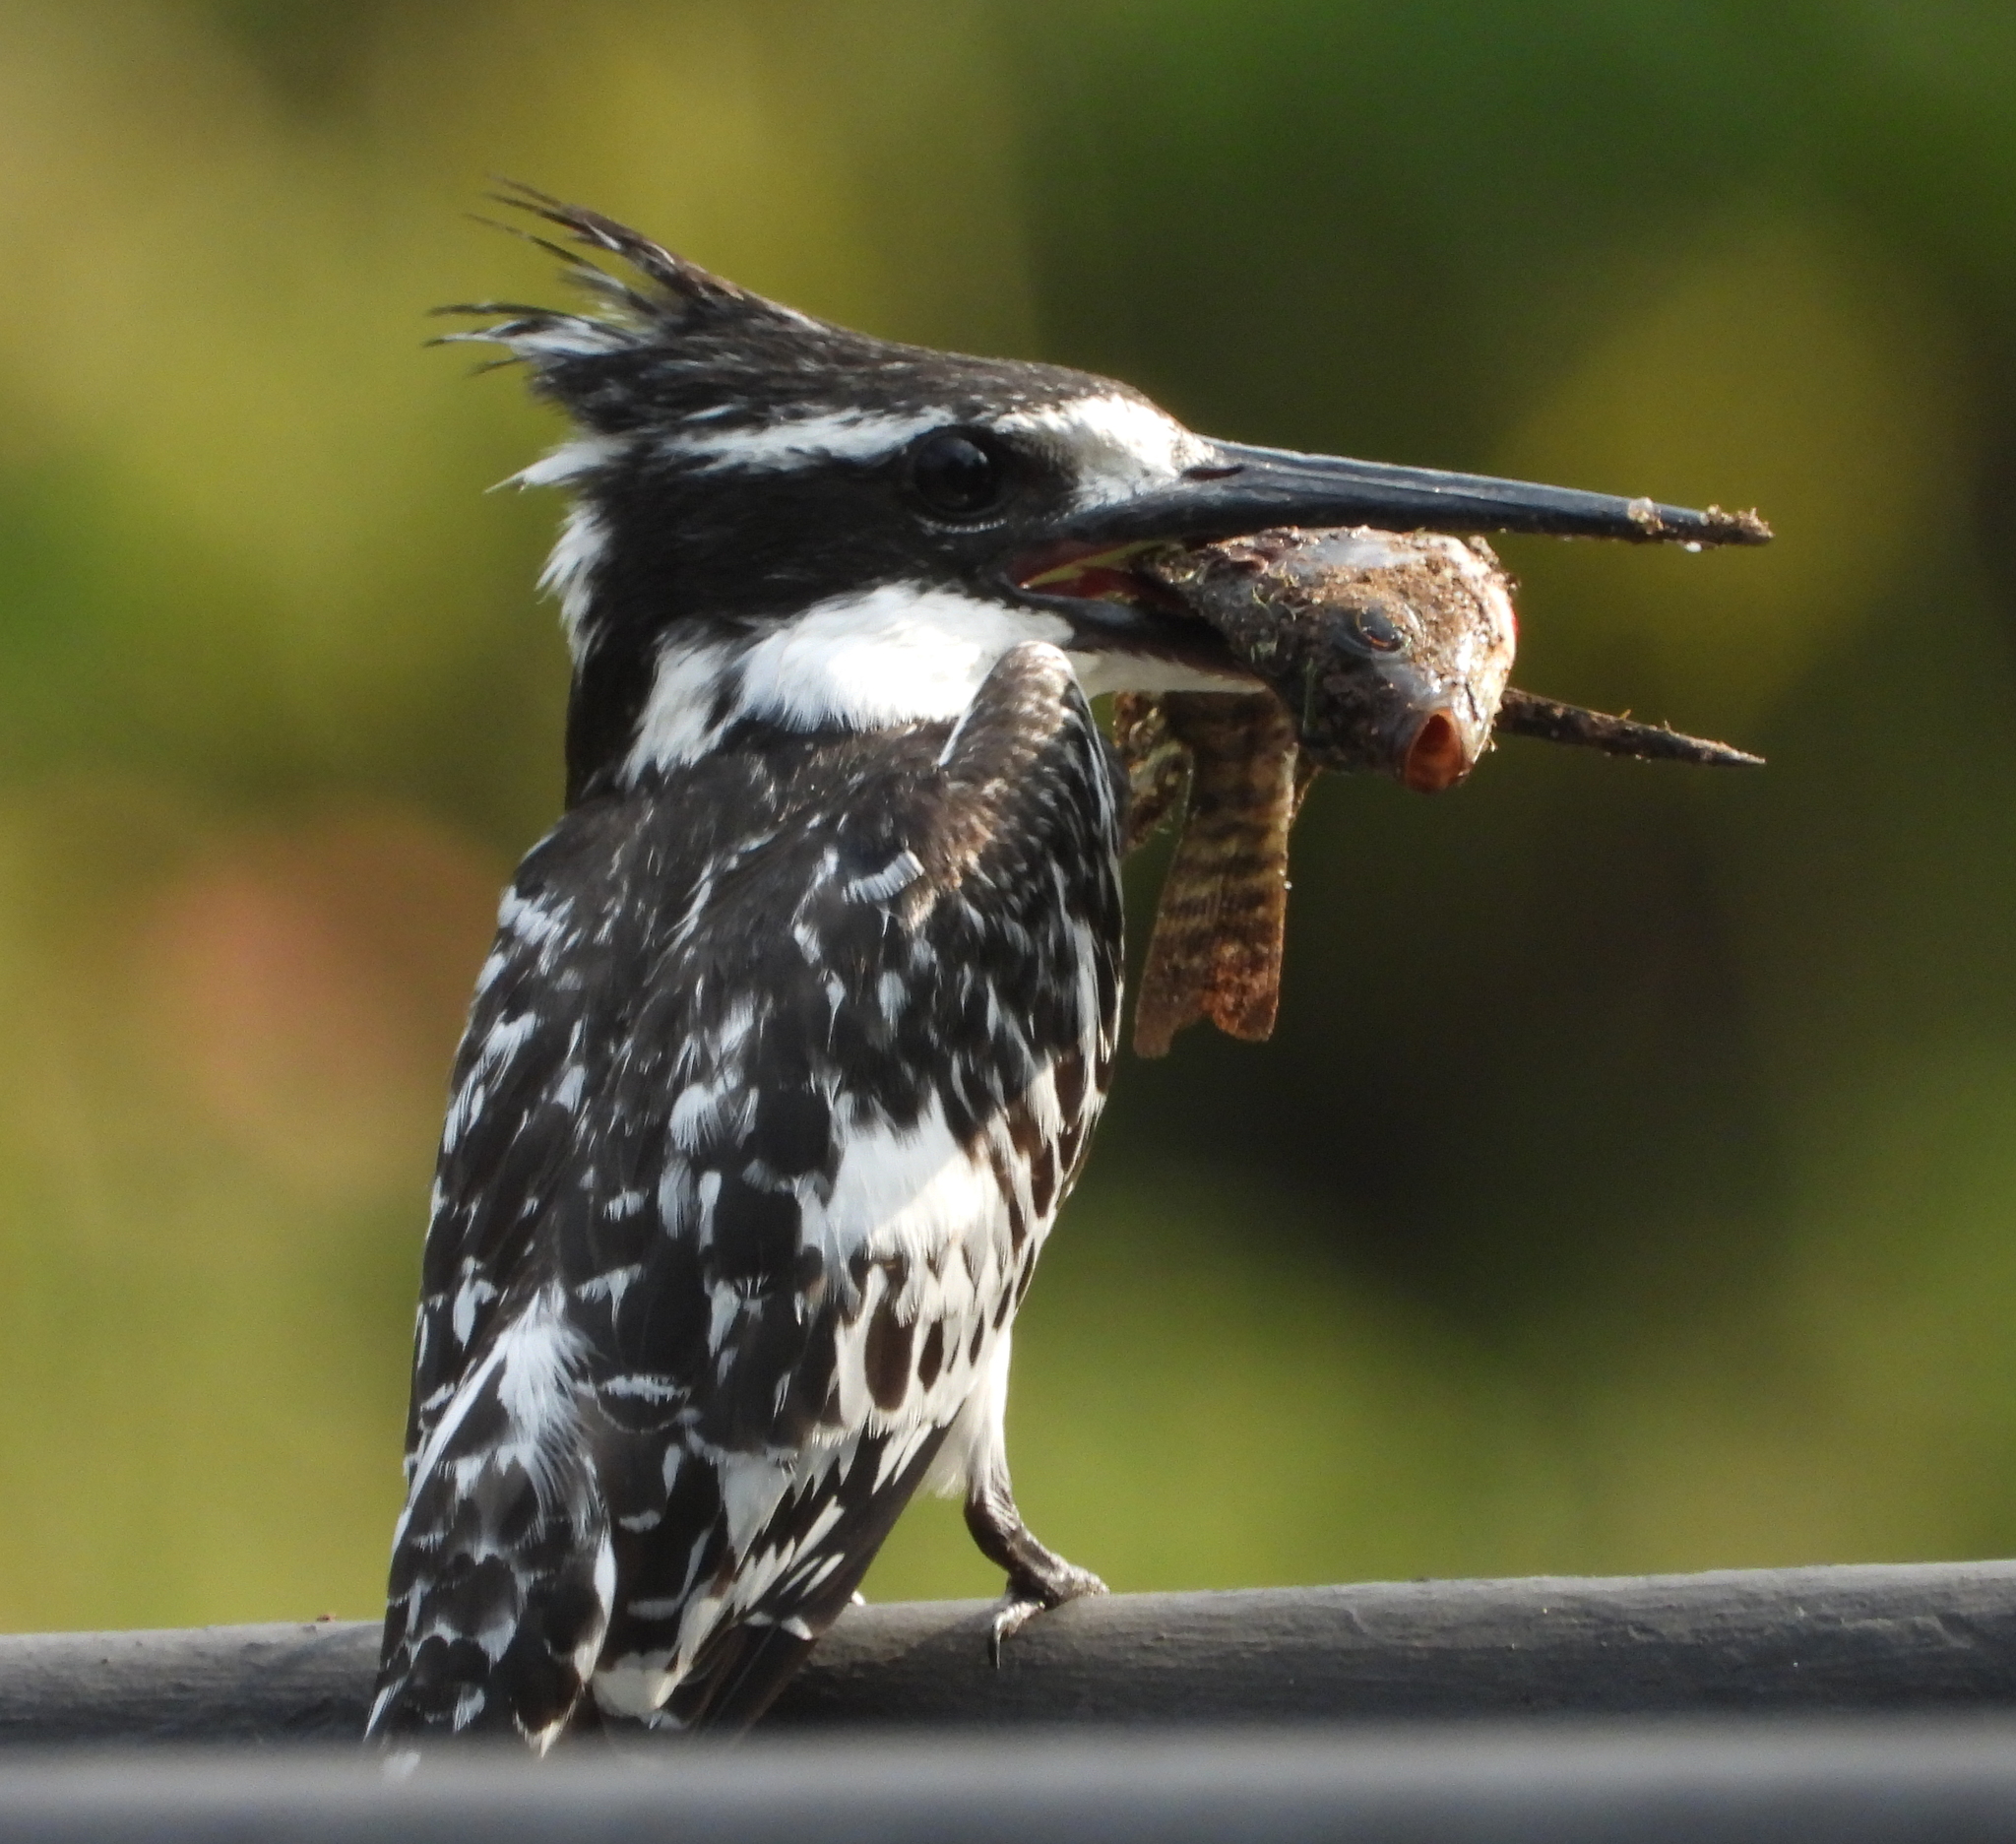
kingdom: Animalia
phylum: Chordata
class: Aves
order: Coraciiformes
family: Alcedinidae
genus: Ceryle
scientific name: Ceryle rudis
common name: Pied kingfisher
